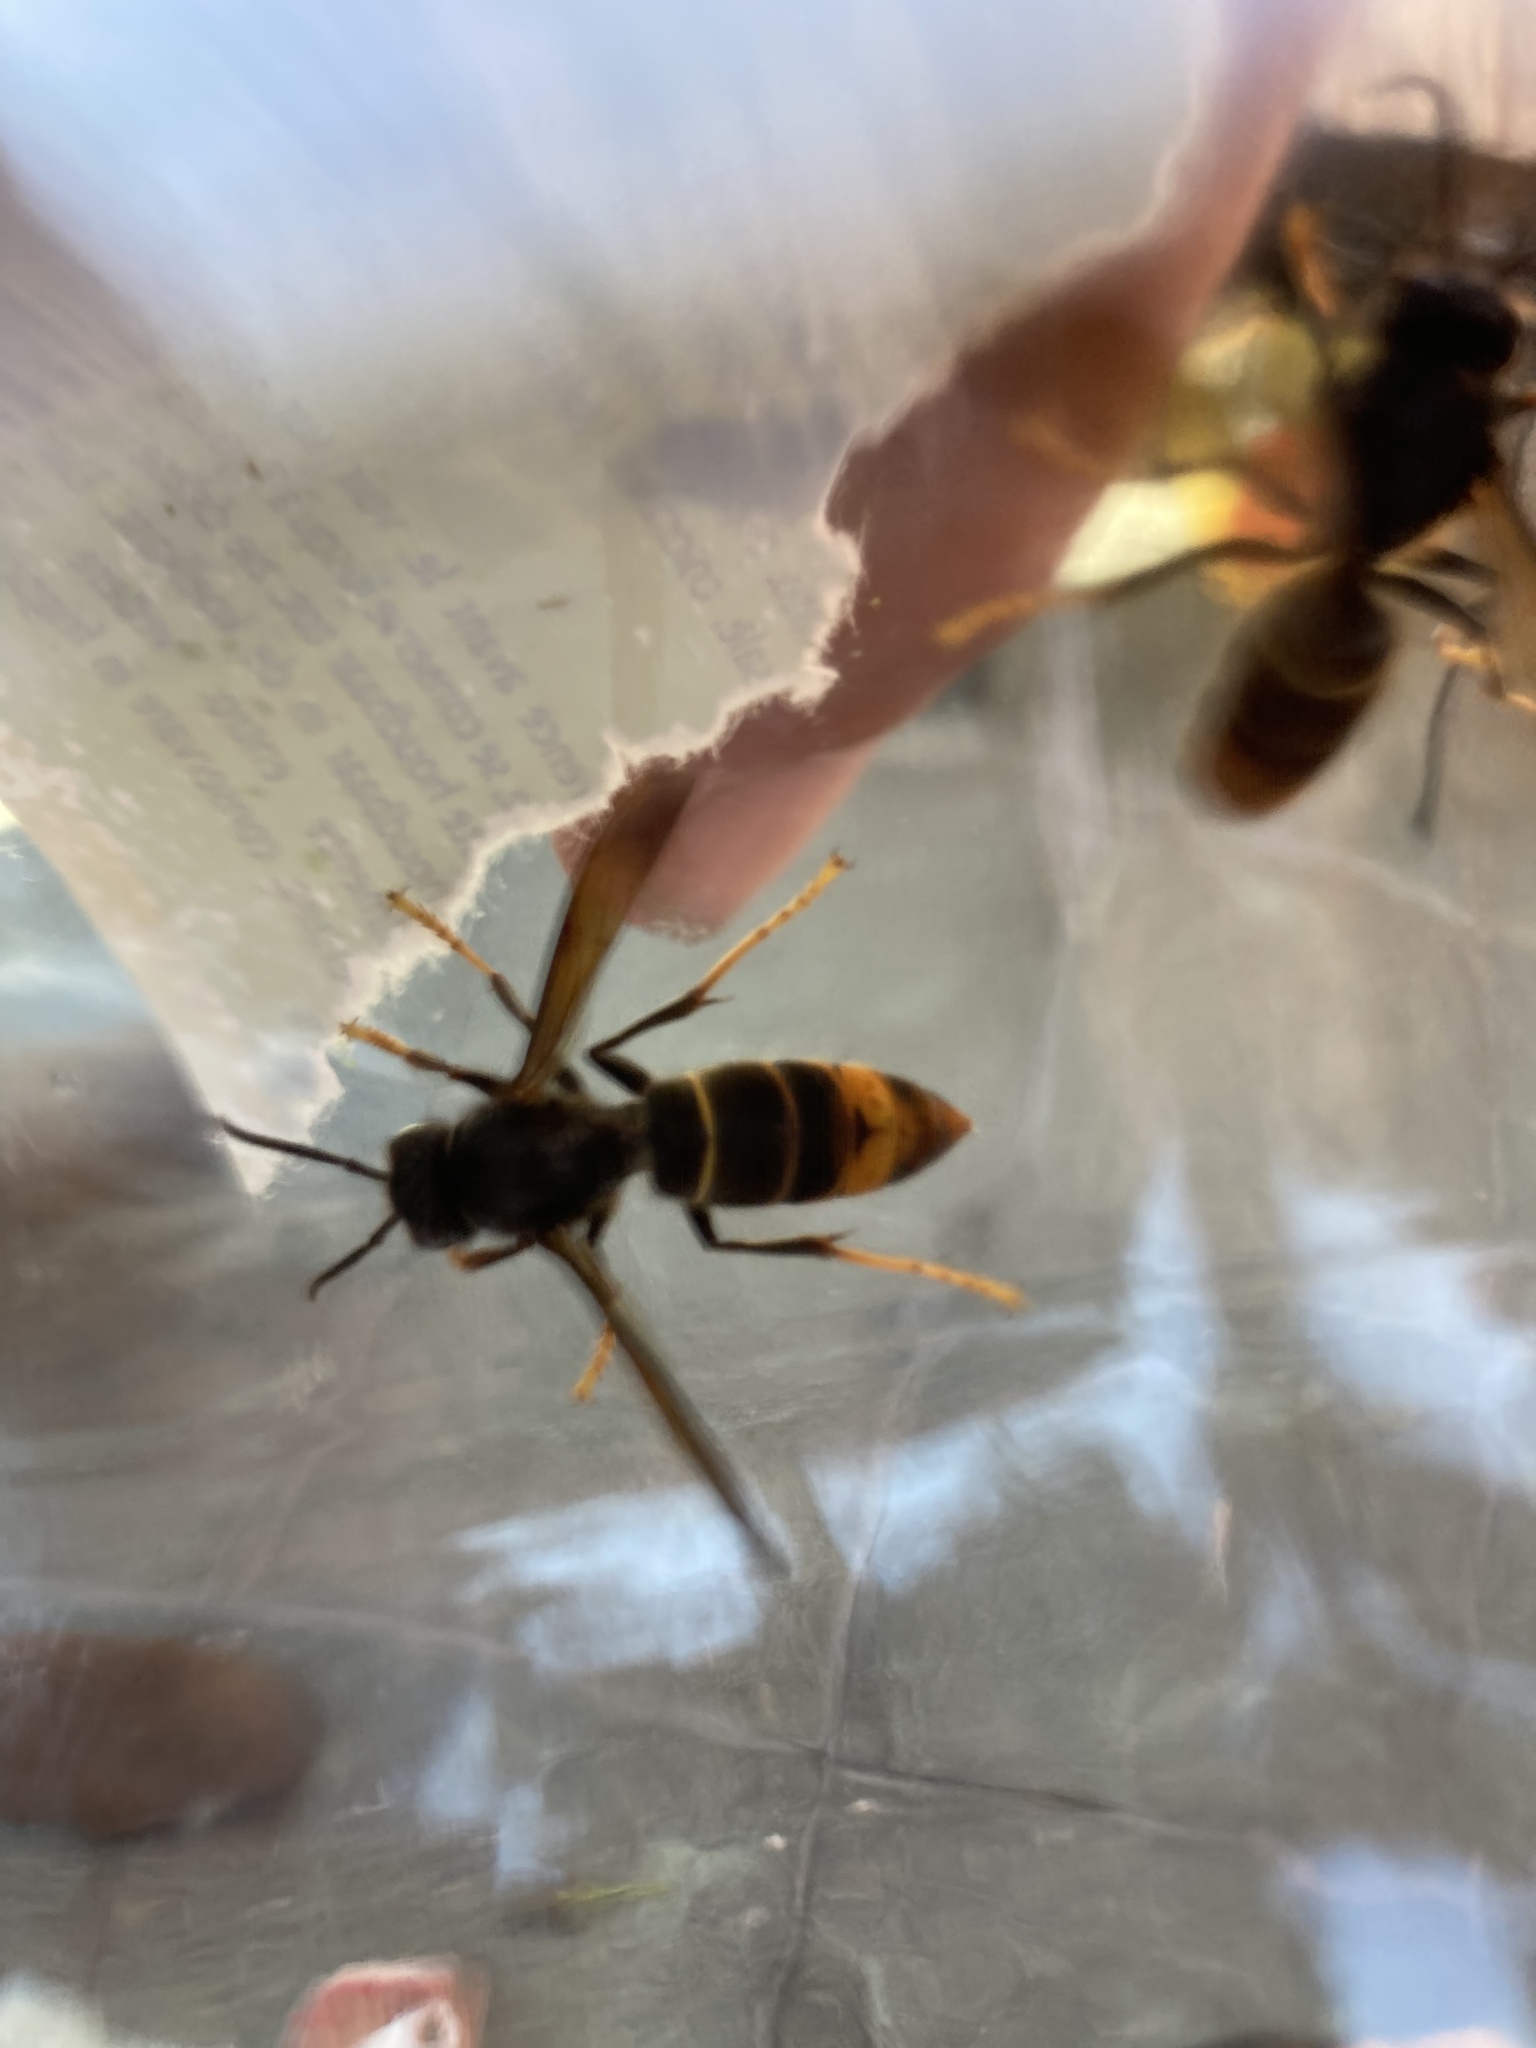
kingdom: Animalia
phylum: Arthropoda
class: Insecta
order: Hymenoptera
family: Vespidae
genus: Vespa
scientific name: Vespa velutina
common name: Asian hornet
